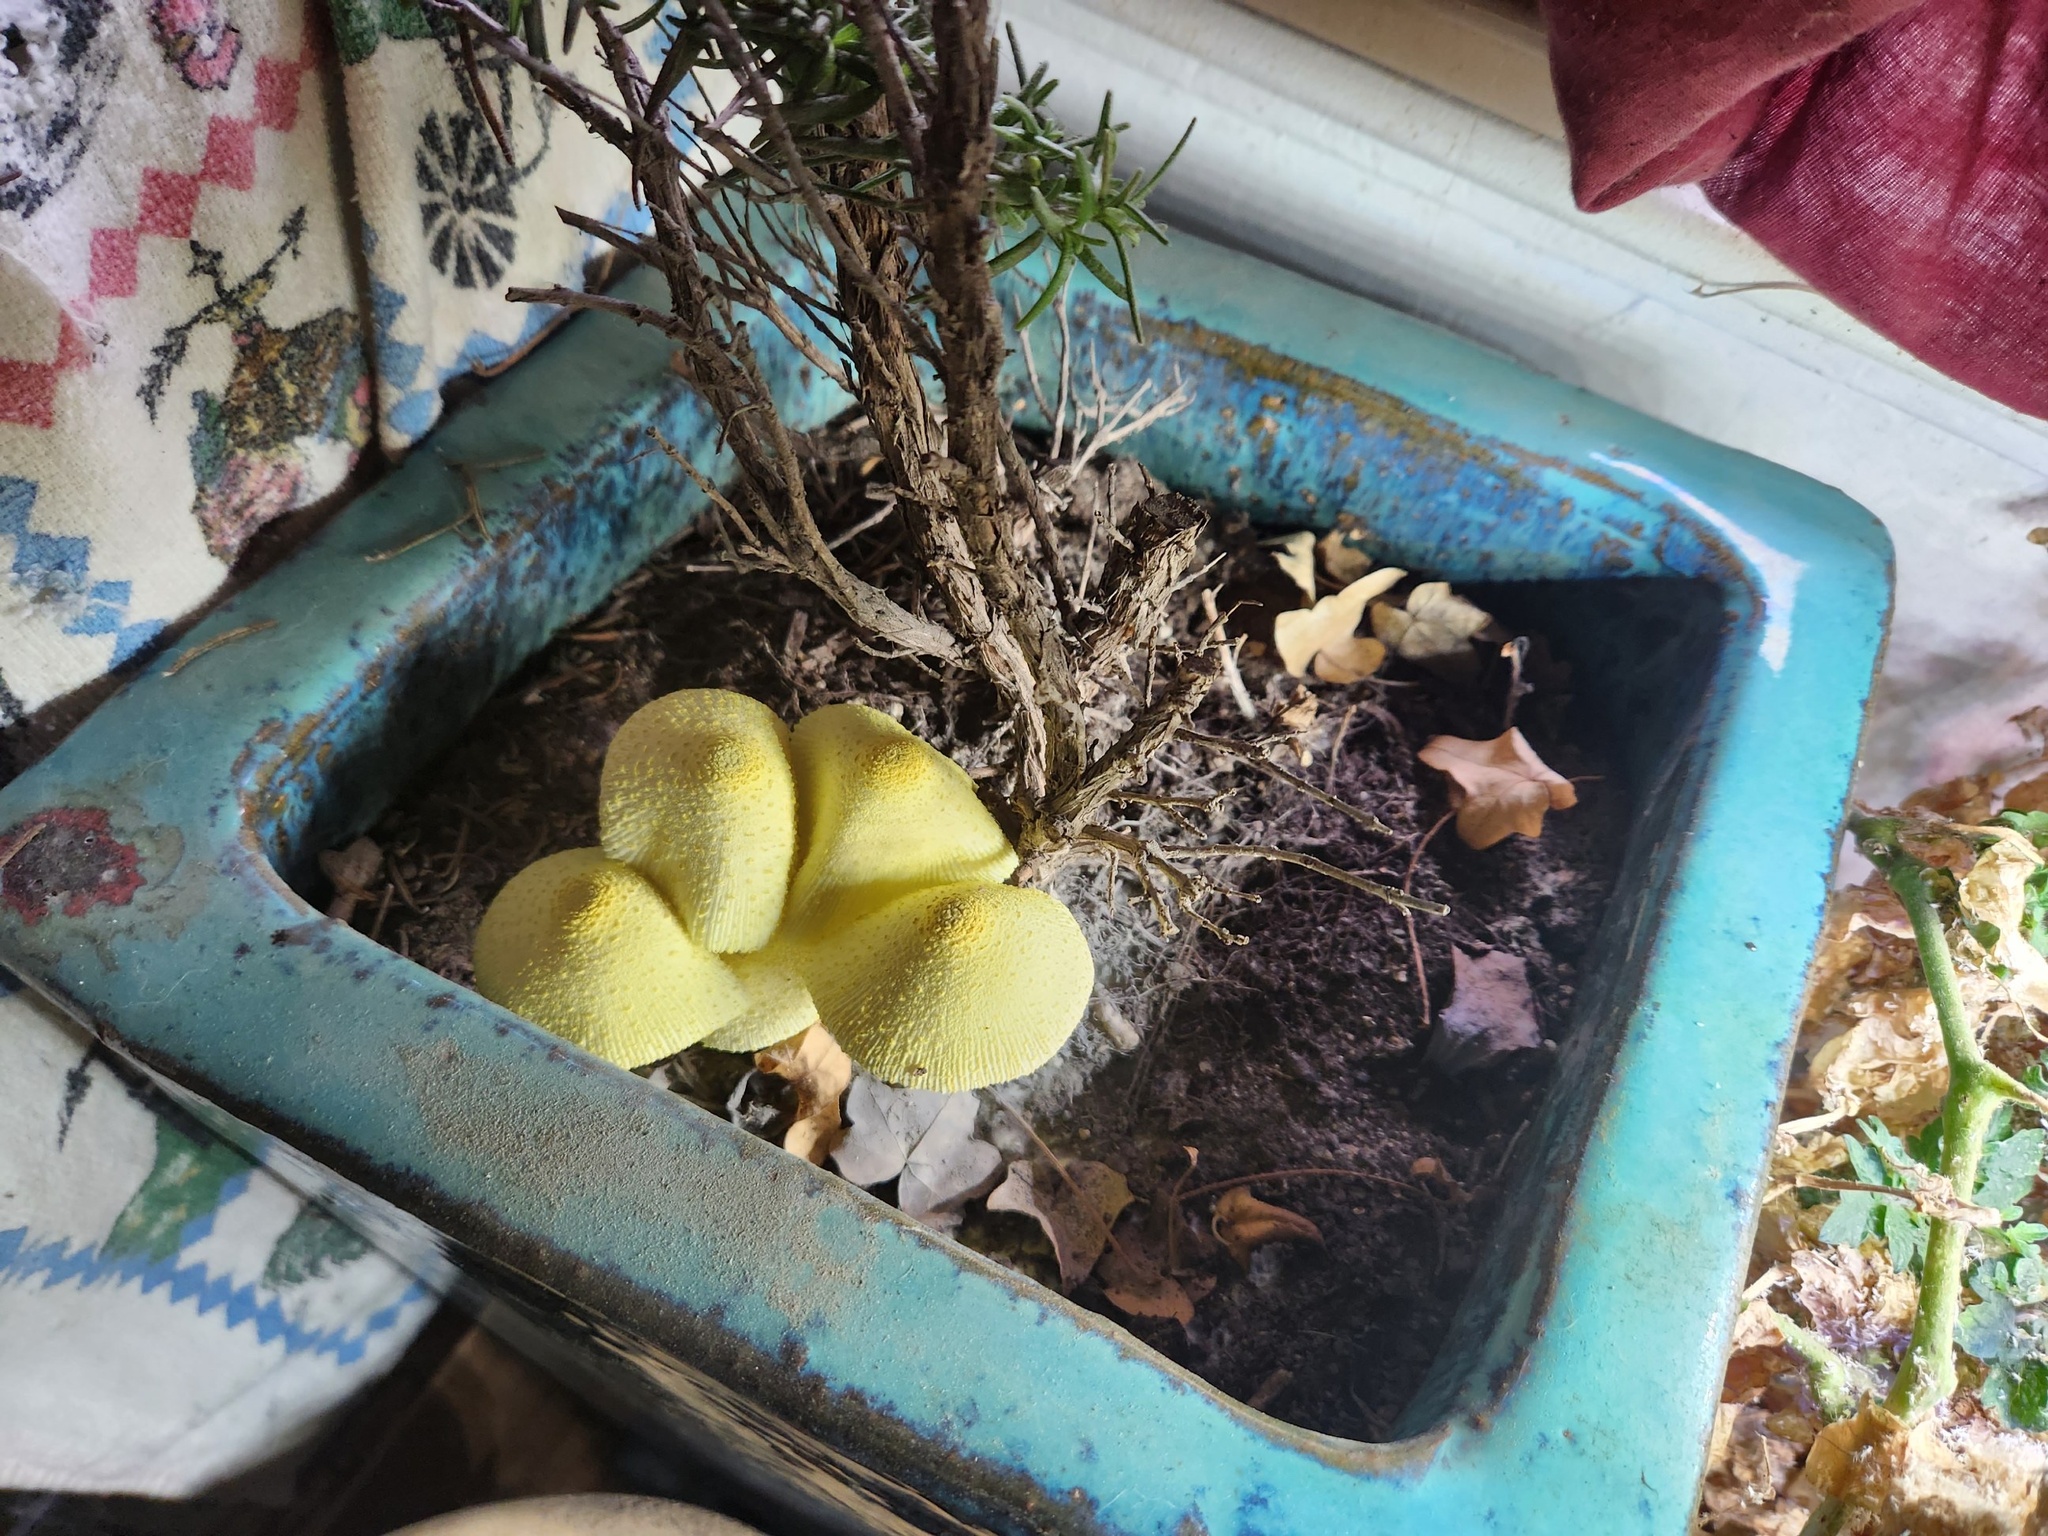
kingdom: Fungi
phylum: Basidiomycota
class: Agaricomycetes
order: Agaricales
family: Agaricaceae
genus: Leucocoprinus
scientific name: Leucocoprinus birnbaumii
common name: Plantpot dapperling
